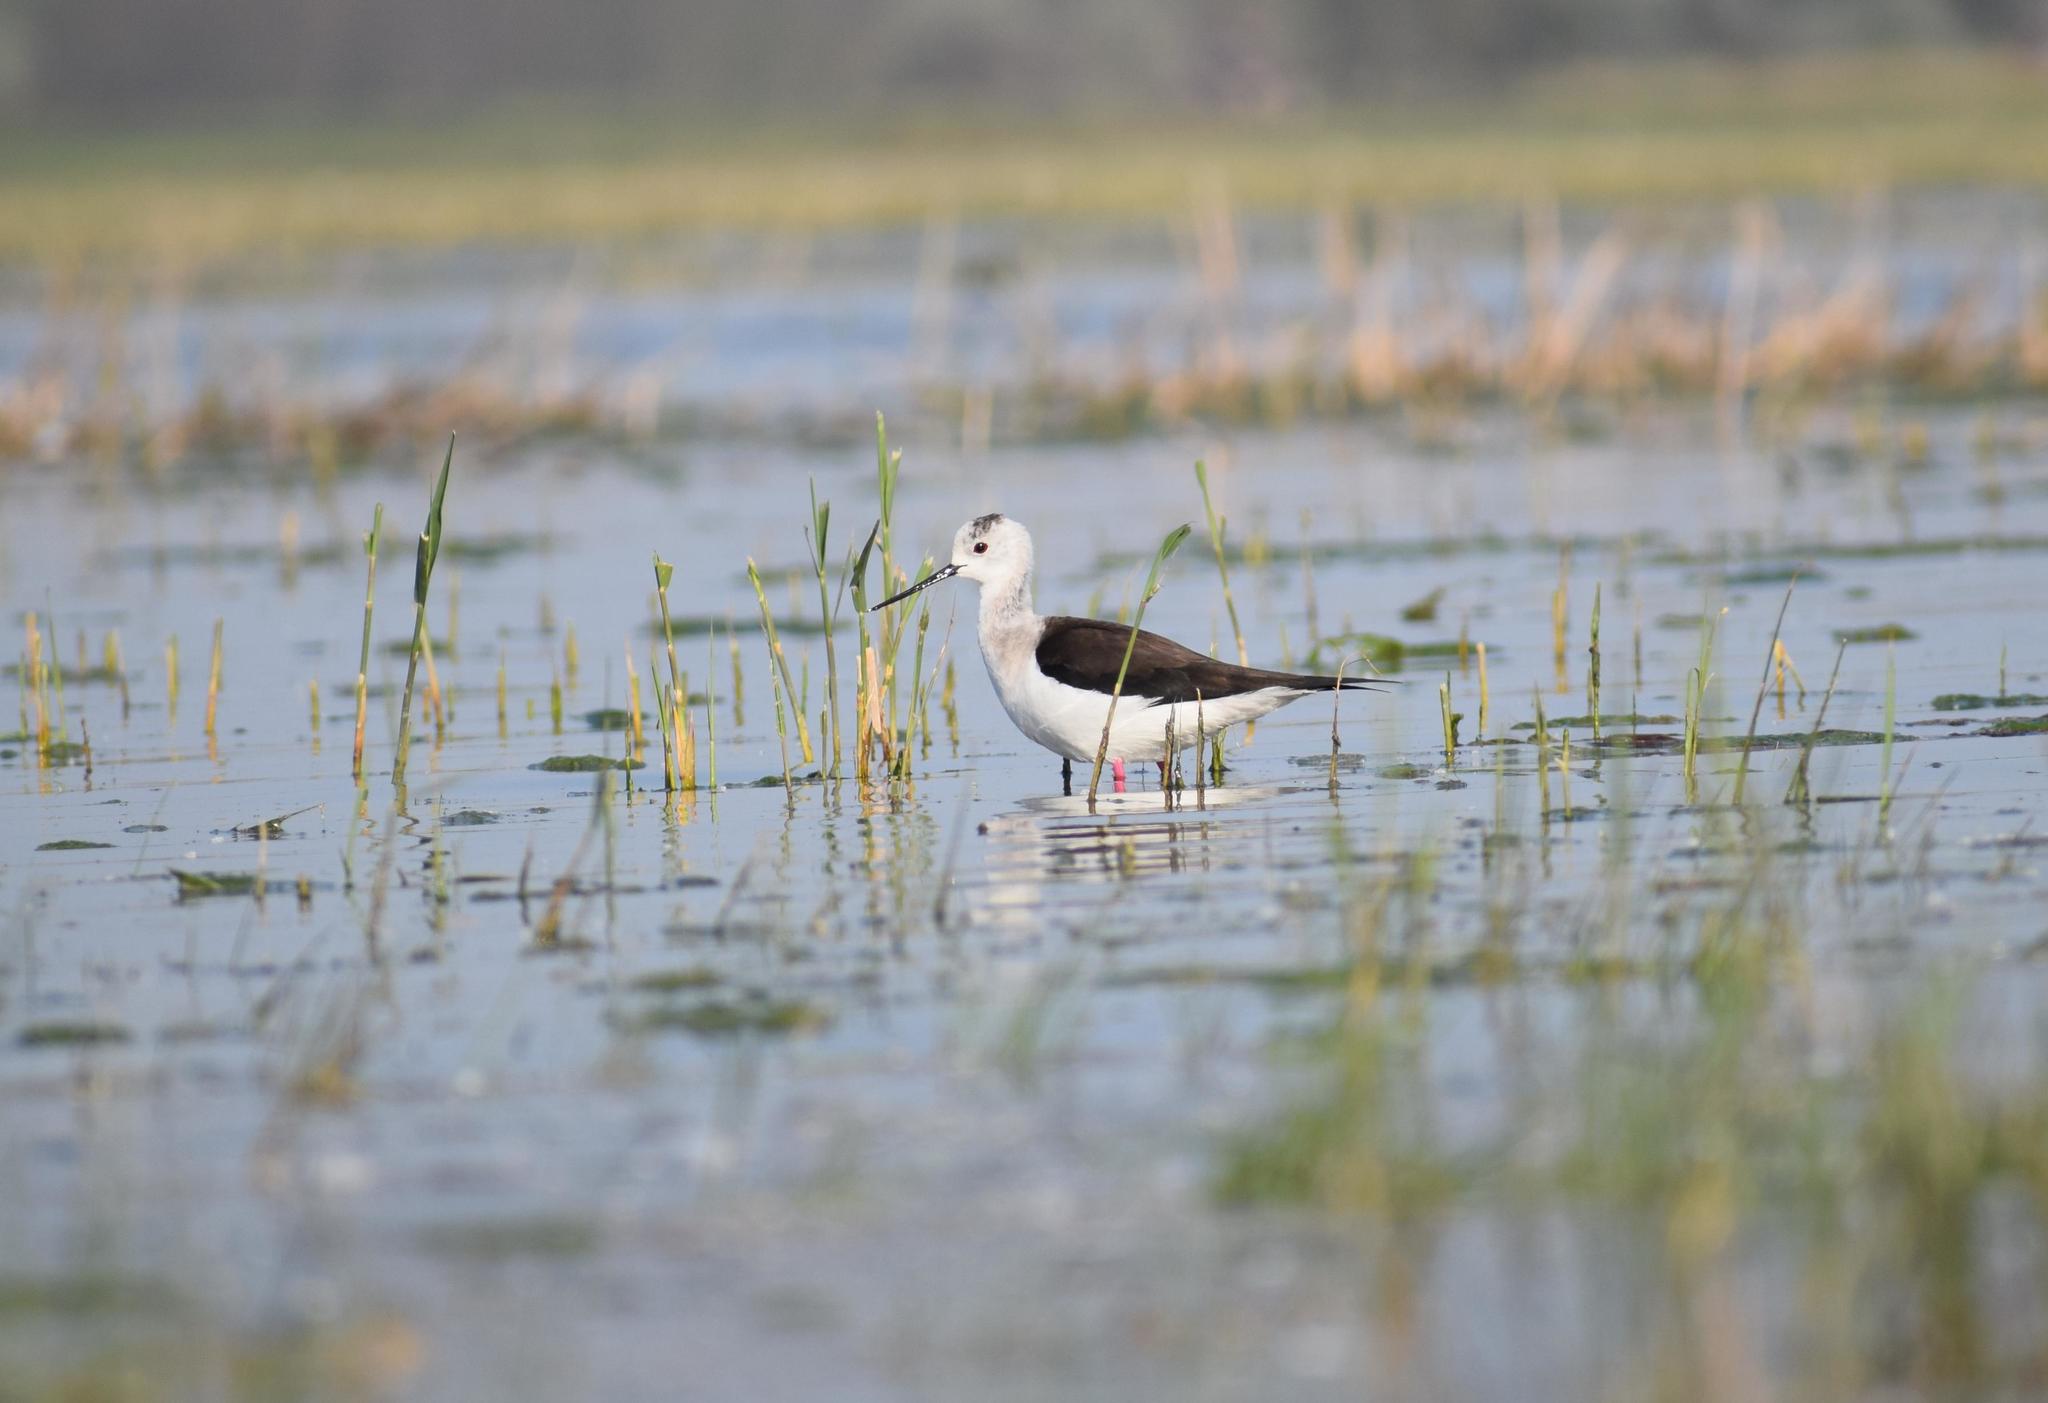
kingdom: Animalia
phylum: Chordata
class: Aves
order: Charadriiformes
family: Recurvirostridae
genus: Himantopus
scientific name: Himantopus himantopus
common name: Black-winged stilt
